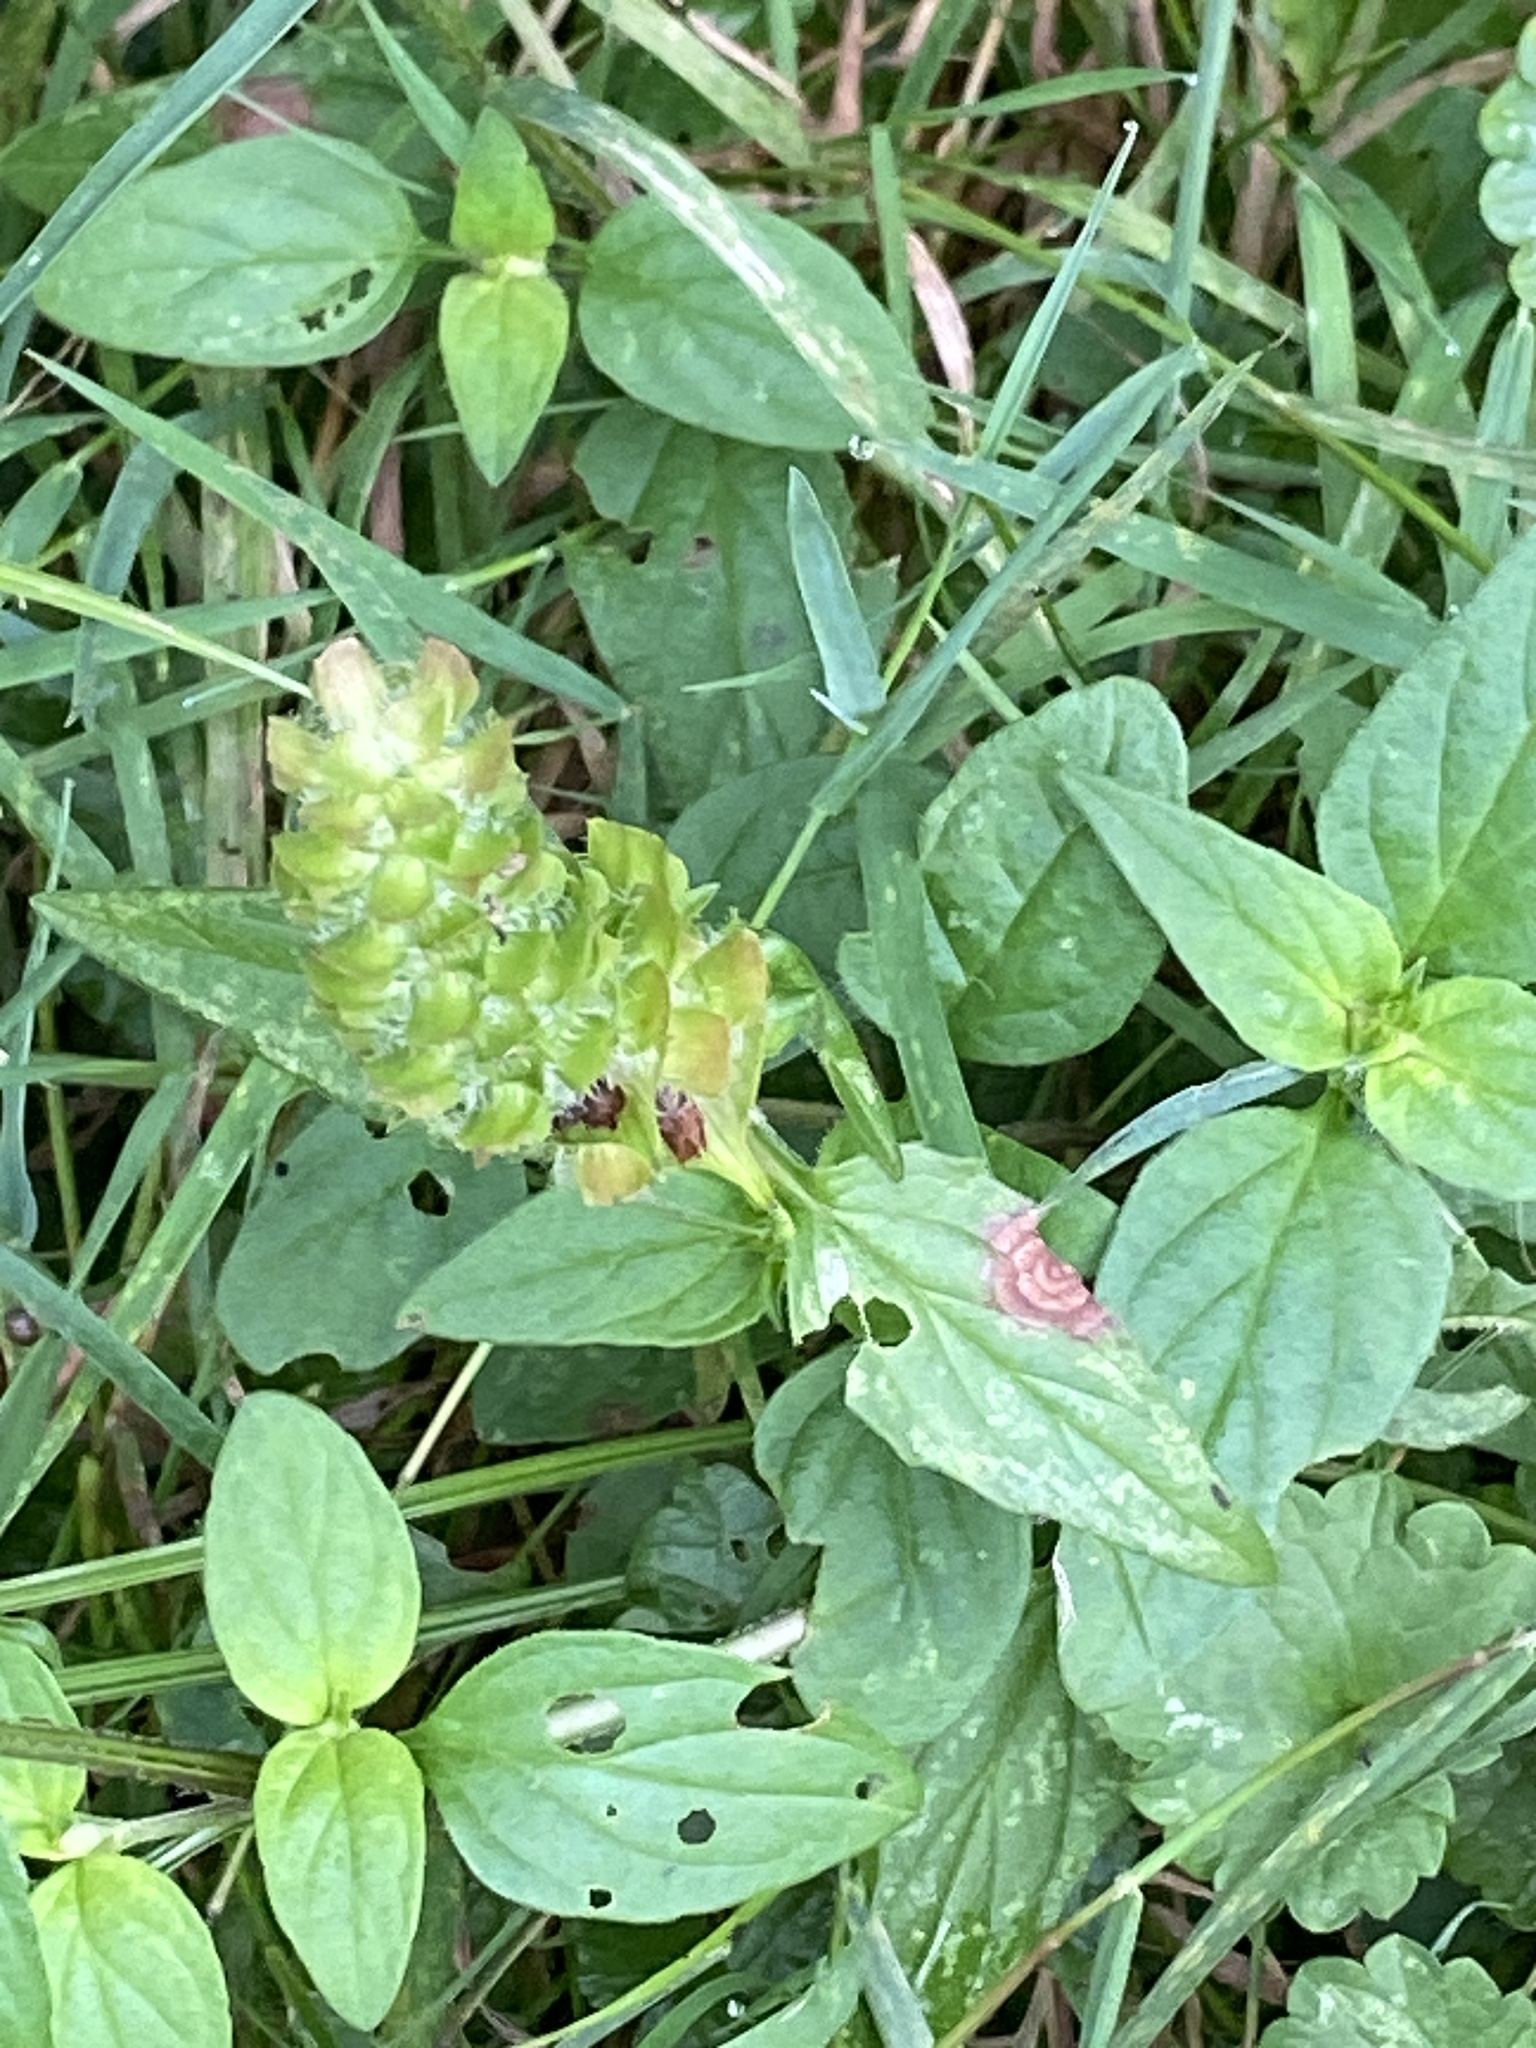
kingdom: Plantae
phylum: Tracheophyta
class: Magnoliopsida
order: Lamiales
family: Lamiaceae
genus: Prunella
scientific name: Prunella vulgaris
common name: Heal-all
